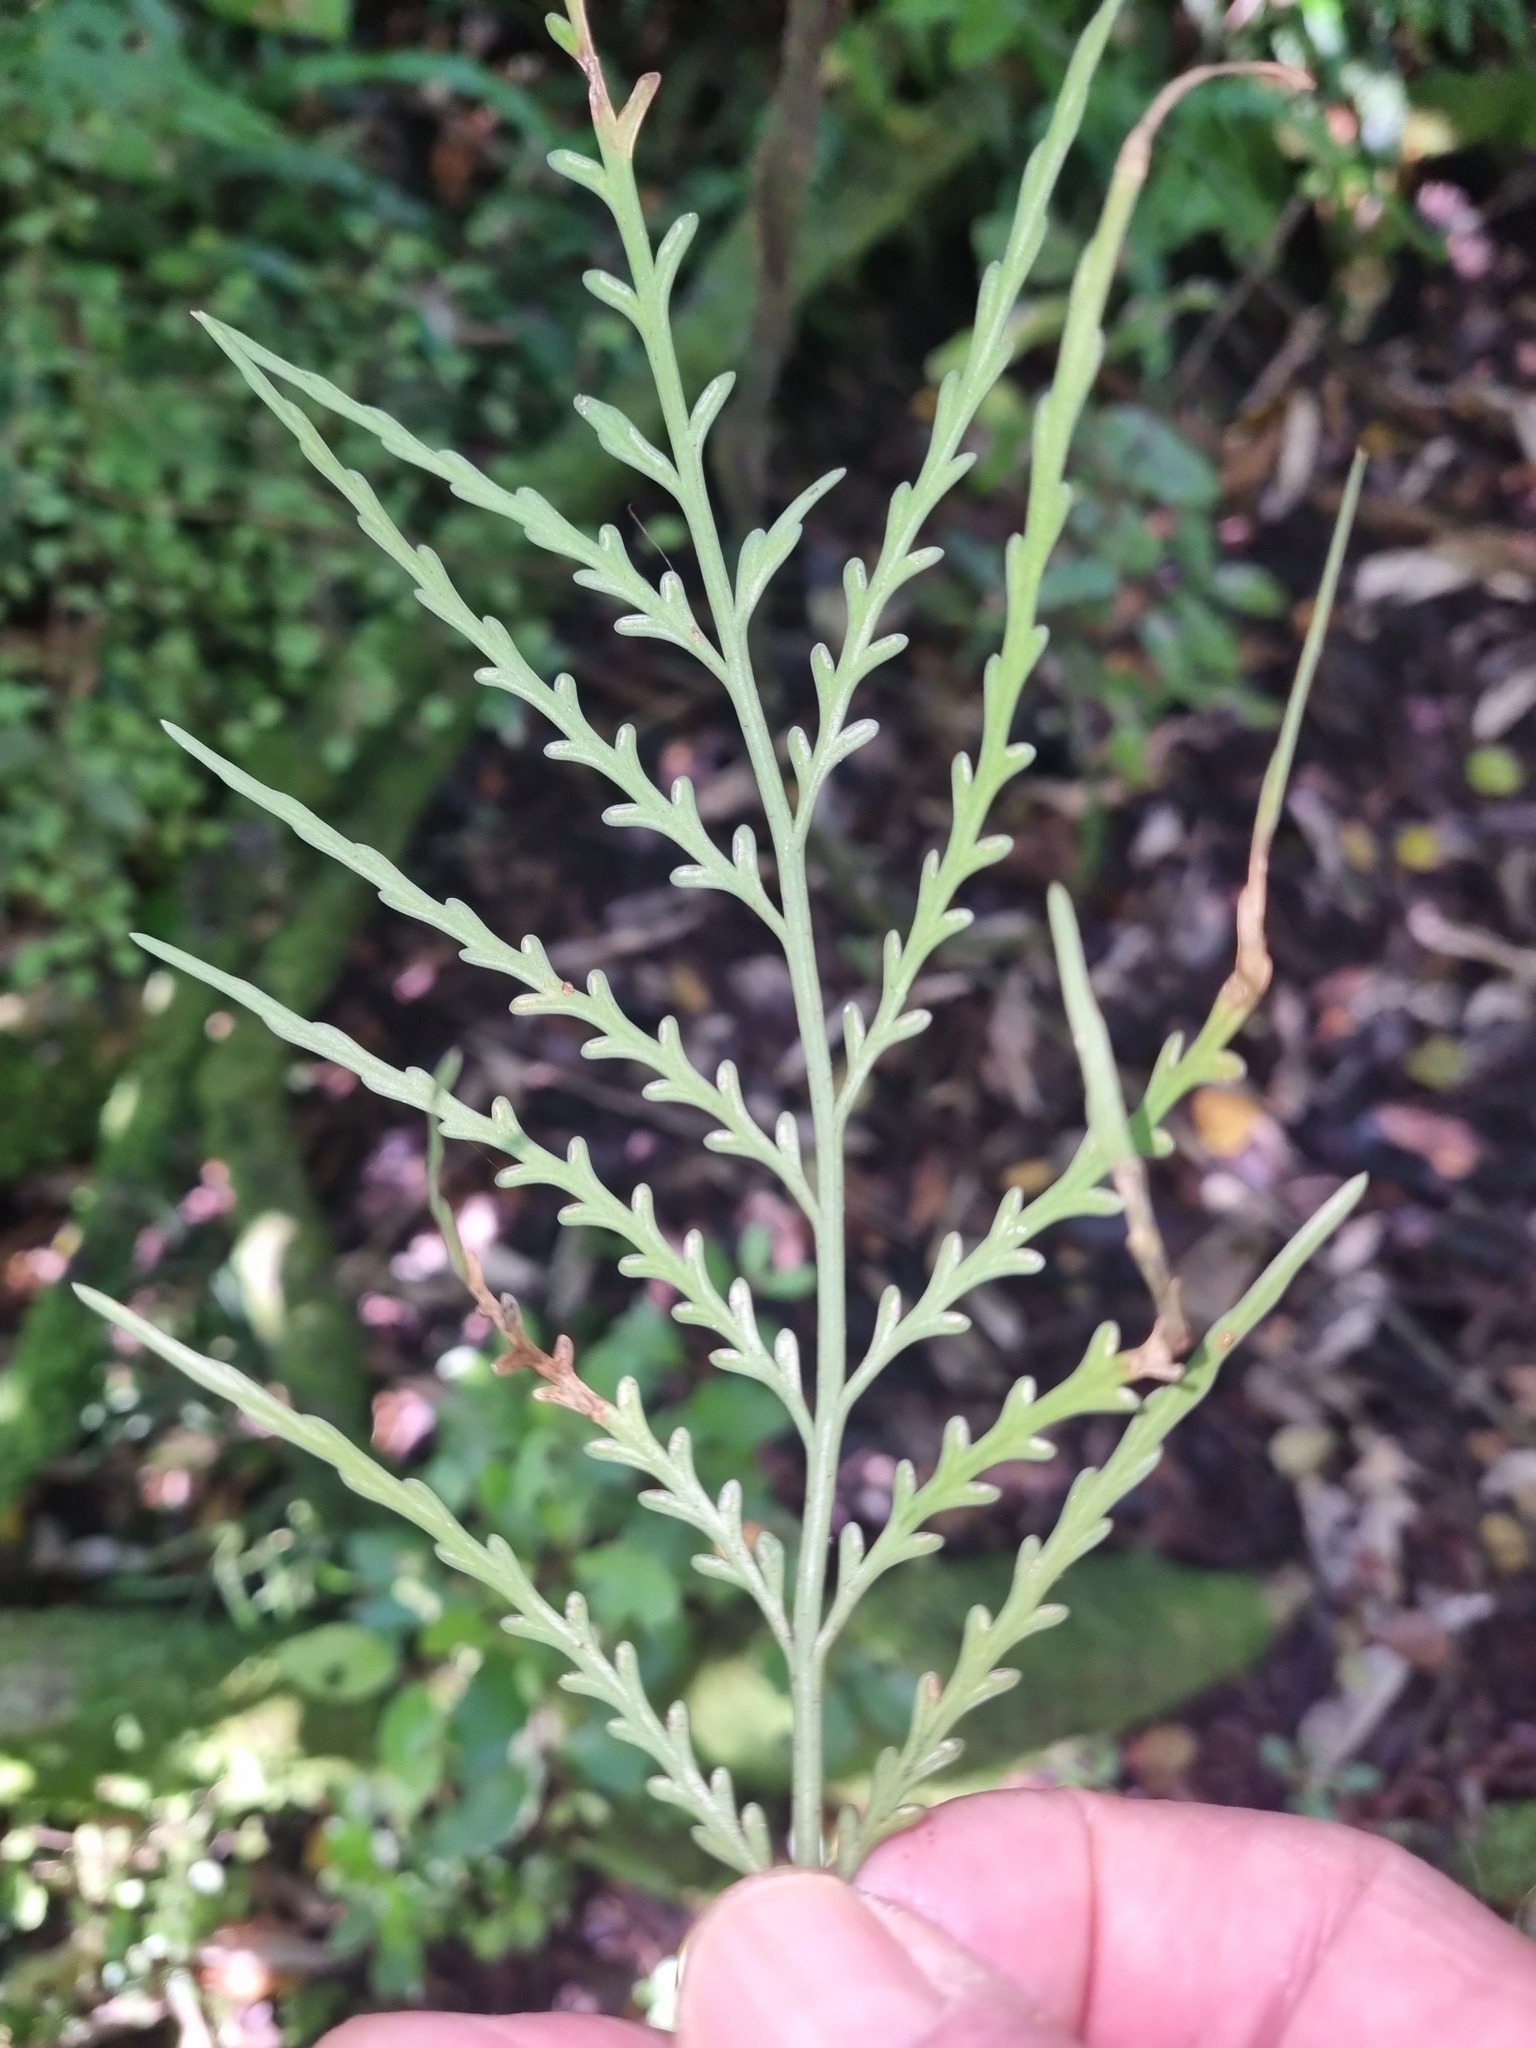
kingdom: Plantae
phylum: Tracheophyta
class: Polypodiopsida
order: Polypodiales
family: Aspleniaceae
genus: Asplenium
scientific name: Asplenium flaccidum
